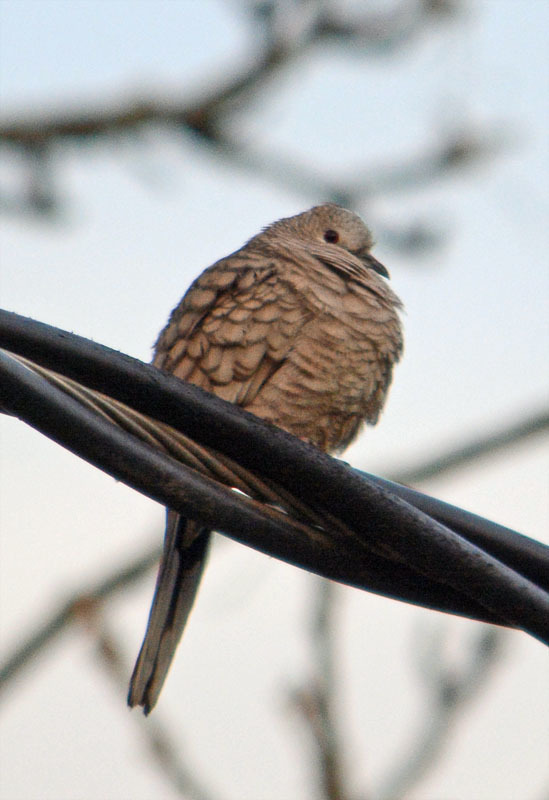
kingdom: Animalia
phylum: Chordata
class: Aves
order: Columbiformes
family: Columbidae
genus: Columbina
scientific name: Columbina inca
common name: Inca dove
